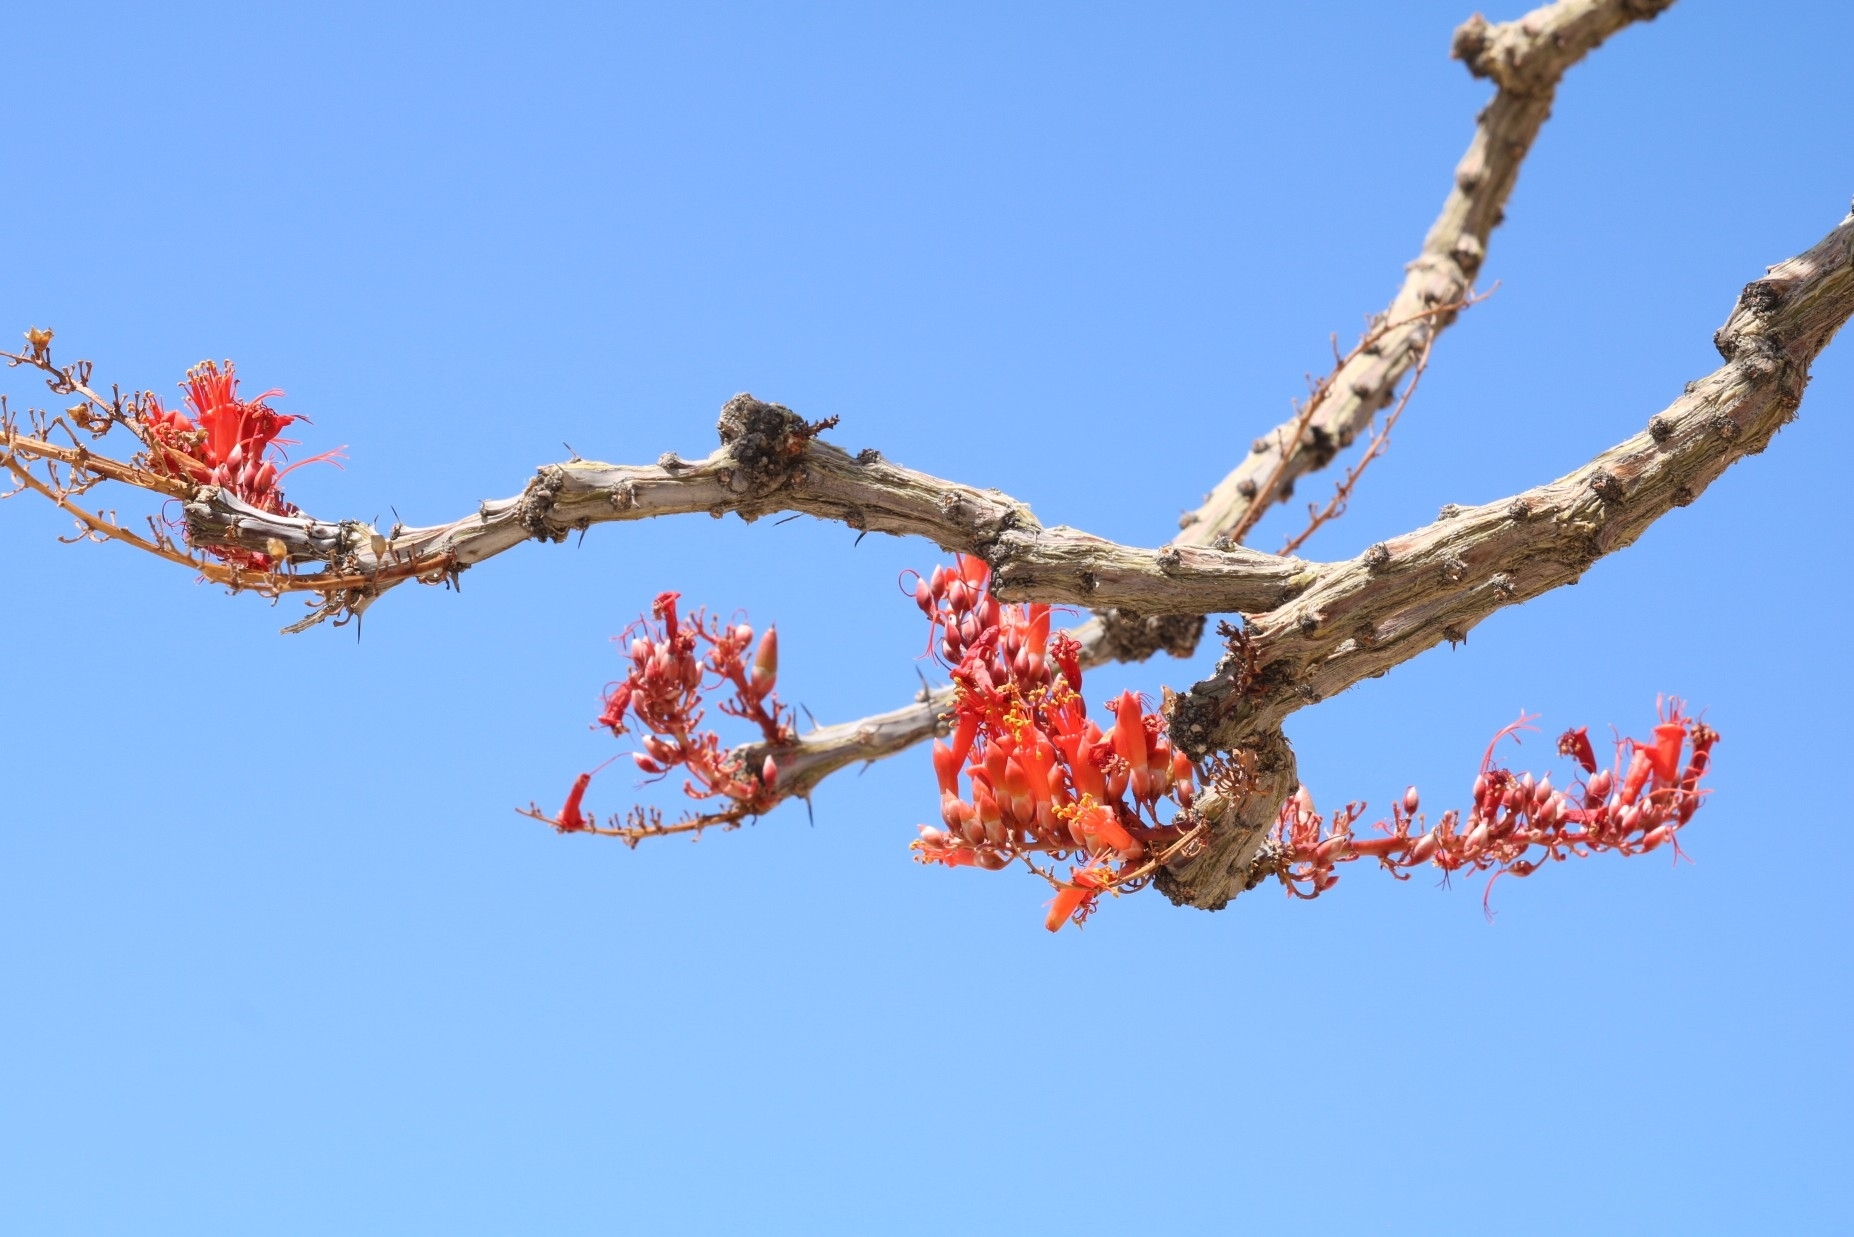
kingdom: Plantae
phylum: Tracheophyta
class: Magnoliopsida
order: Ericales
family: Fouquieriaceae
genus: Fouquieria
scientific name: Fouquieria splendens
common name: Vine-cactus
